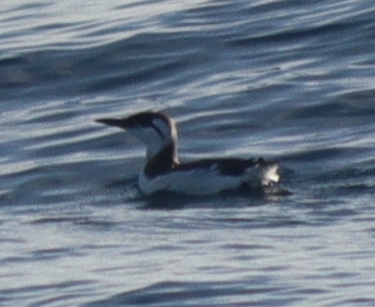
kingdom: Animalia
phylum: Chordata
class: Aves
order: Charadriiformes
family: Alcidae
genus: Uria
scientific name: Uria aalge
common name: Common murre
